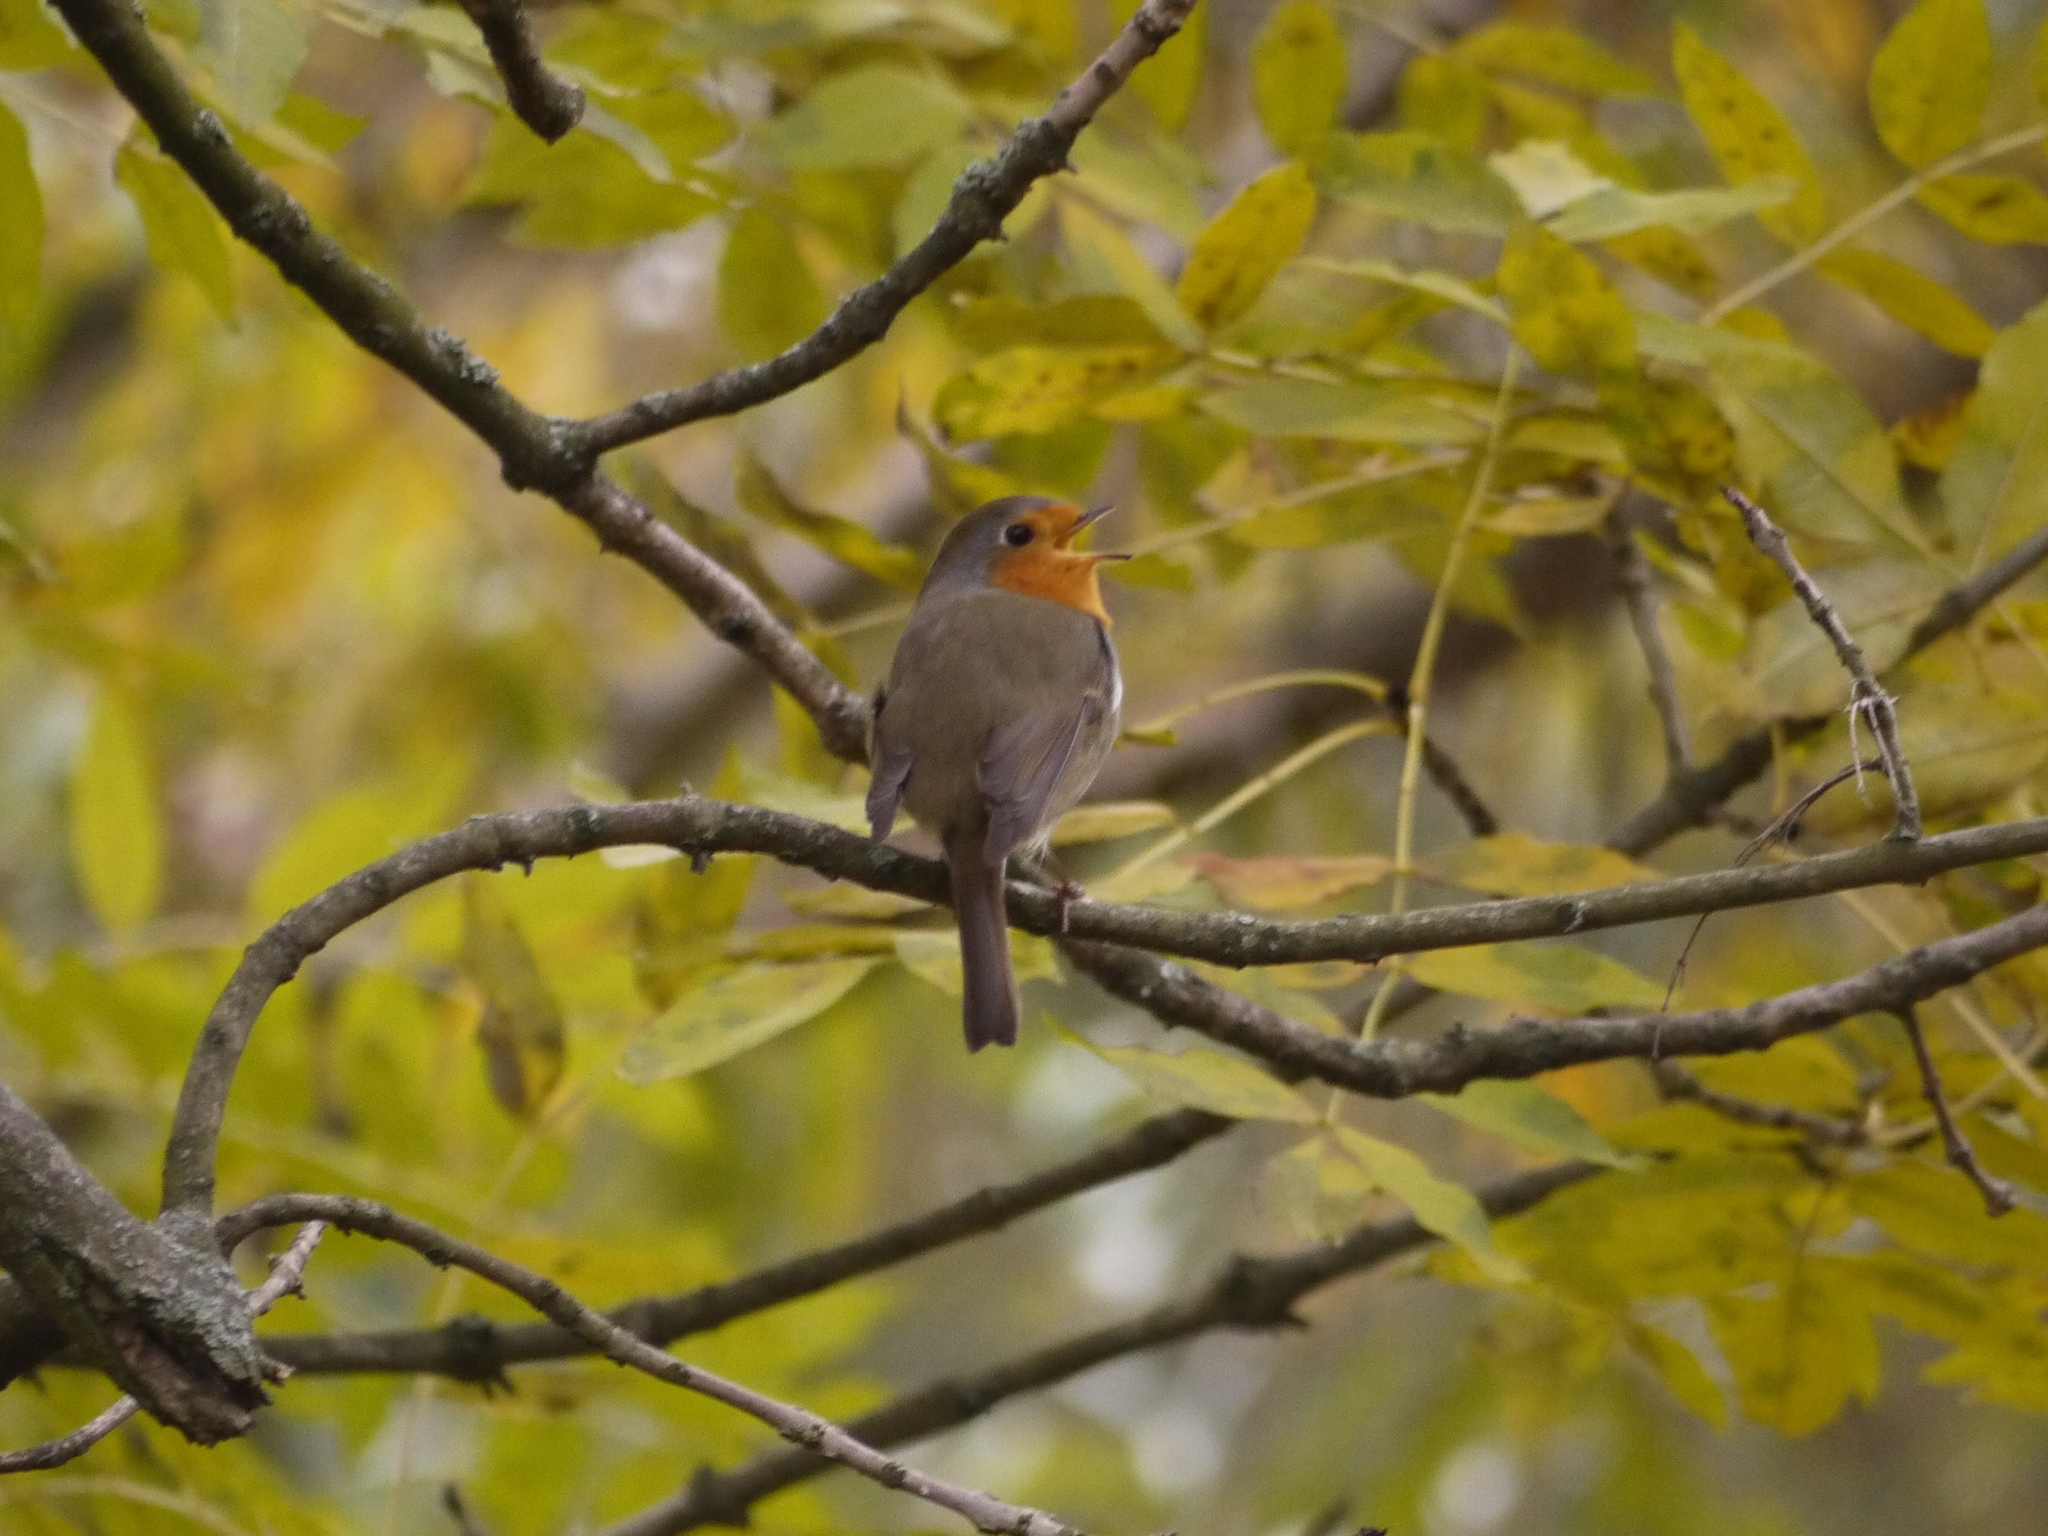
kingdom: Animalia
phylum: Chordata
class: Aves
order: Passeriformes
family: Muscicapidae
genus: Erithacus
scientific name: Erithacus rubecula
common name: European robin
